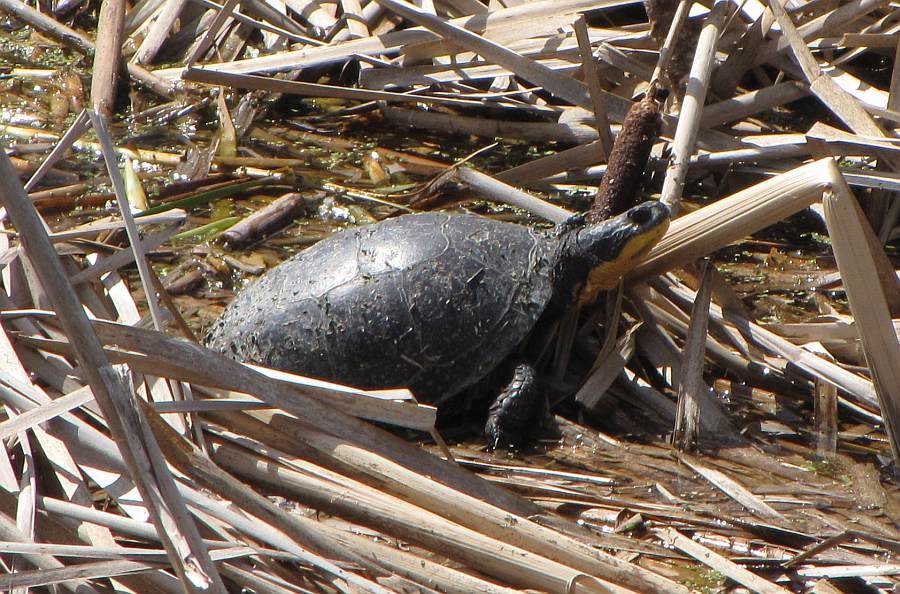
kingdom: Animalia
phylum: Chordata
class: Testudines
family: Emydidae
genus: Emys
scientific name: Emys blandingii
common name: Blanding's turtle
